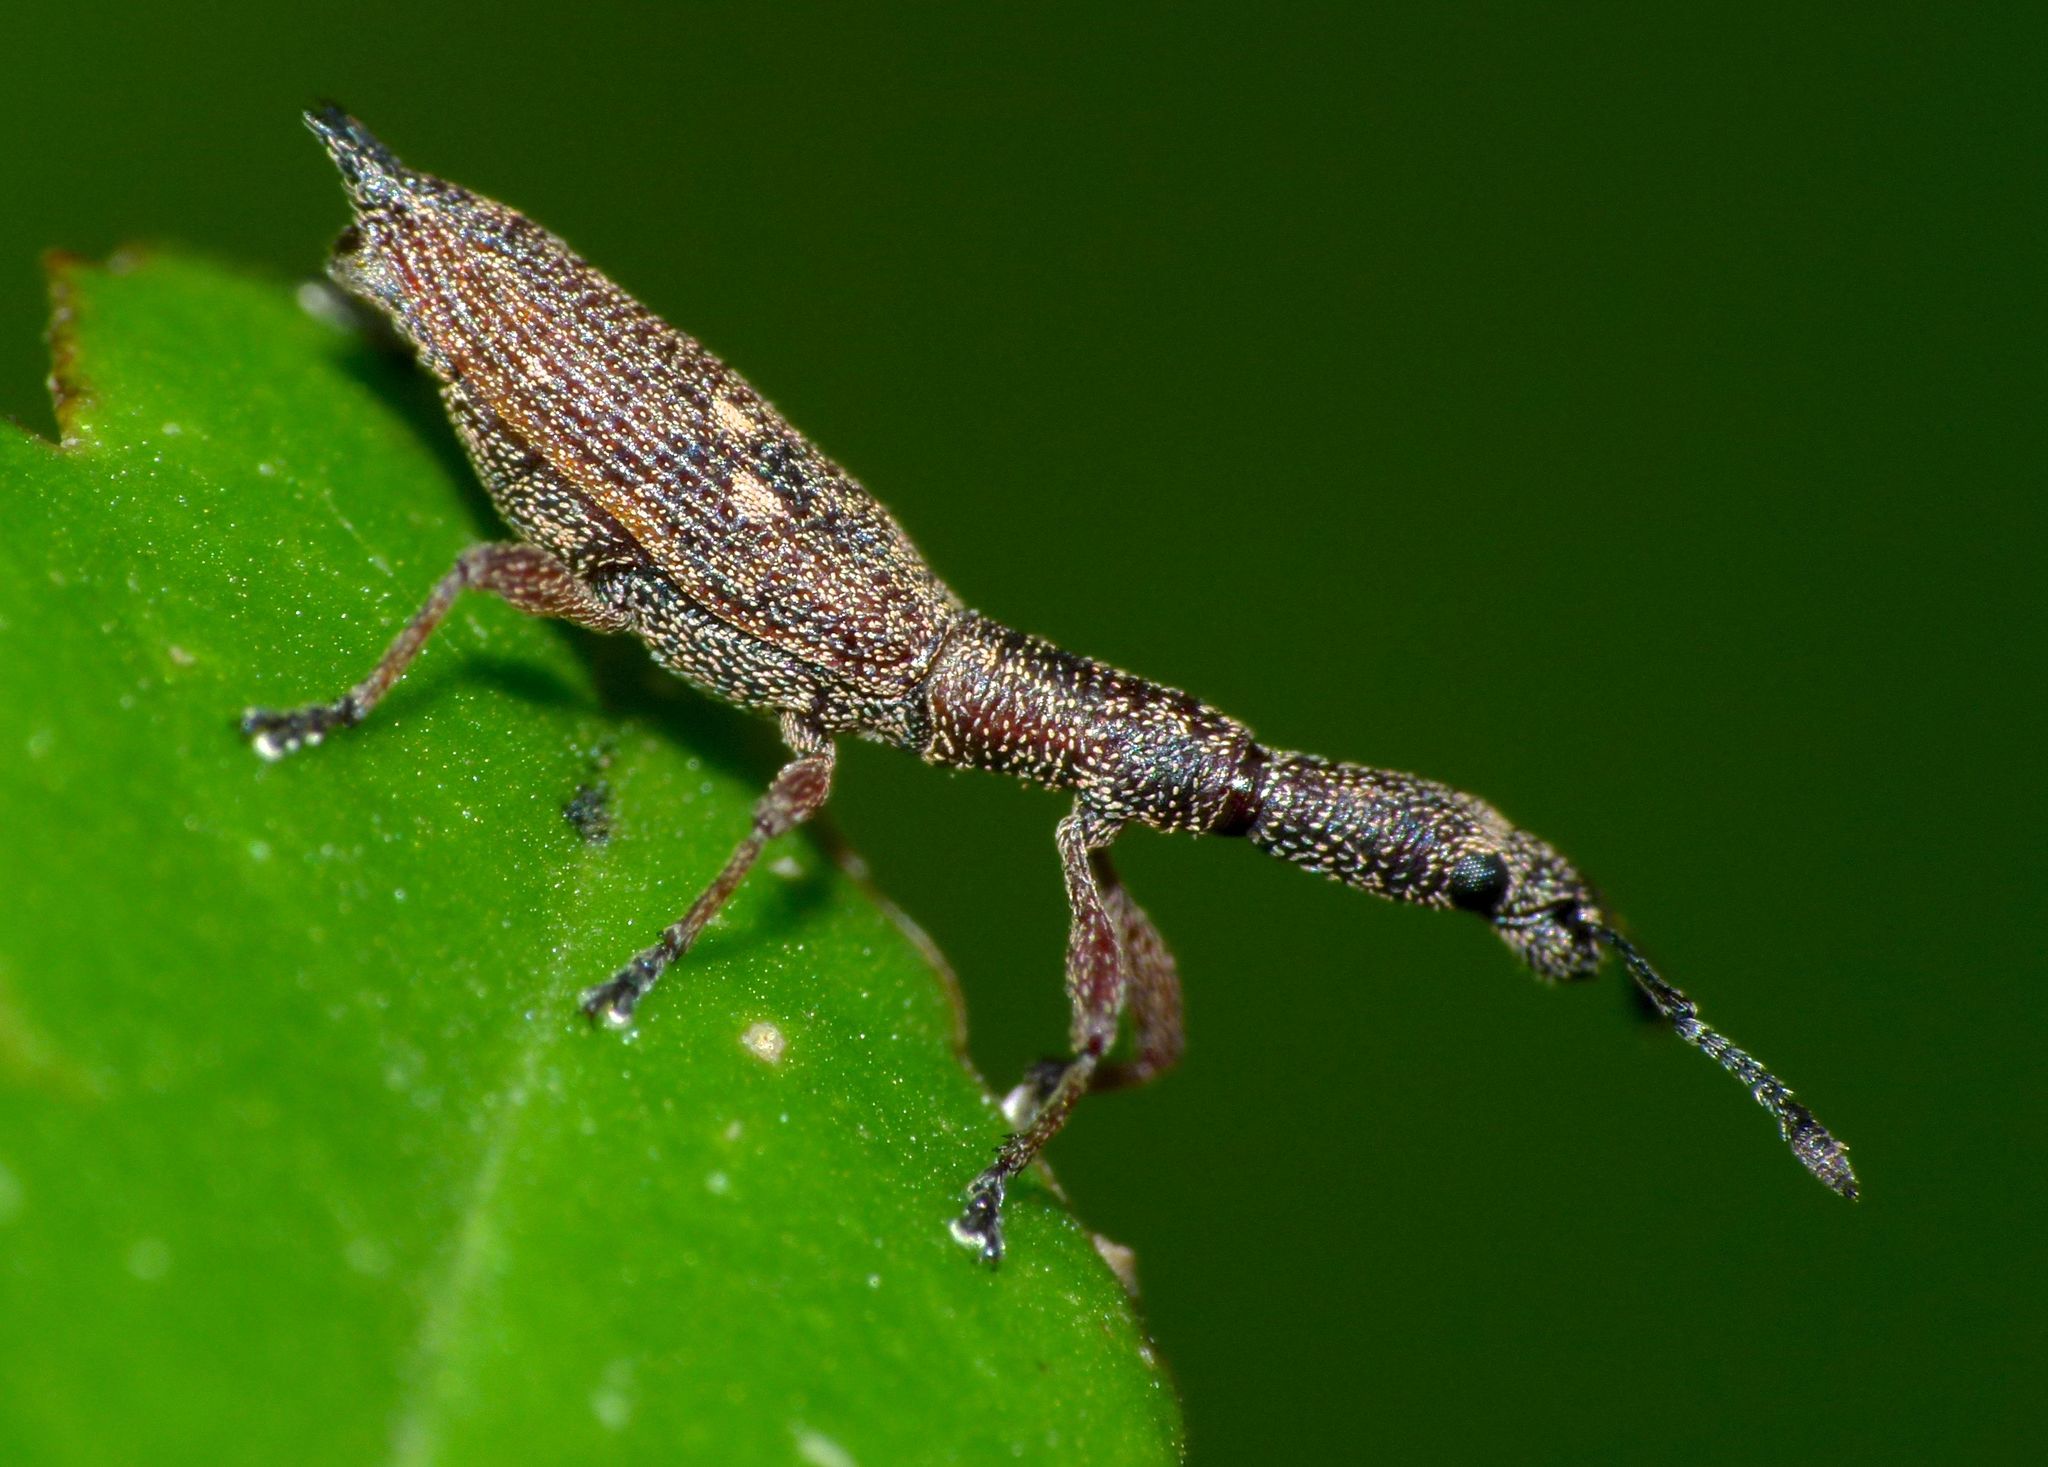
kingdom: Animalia
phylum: Arthropoda
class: Insecta
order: Coleoptera
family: Curculionidae
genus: Rhadinosomus
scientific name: Rhadinosomus acuminatus
